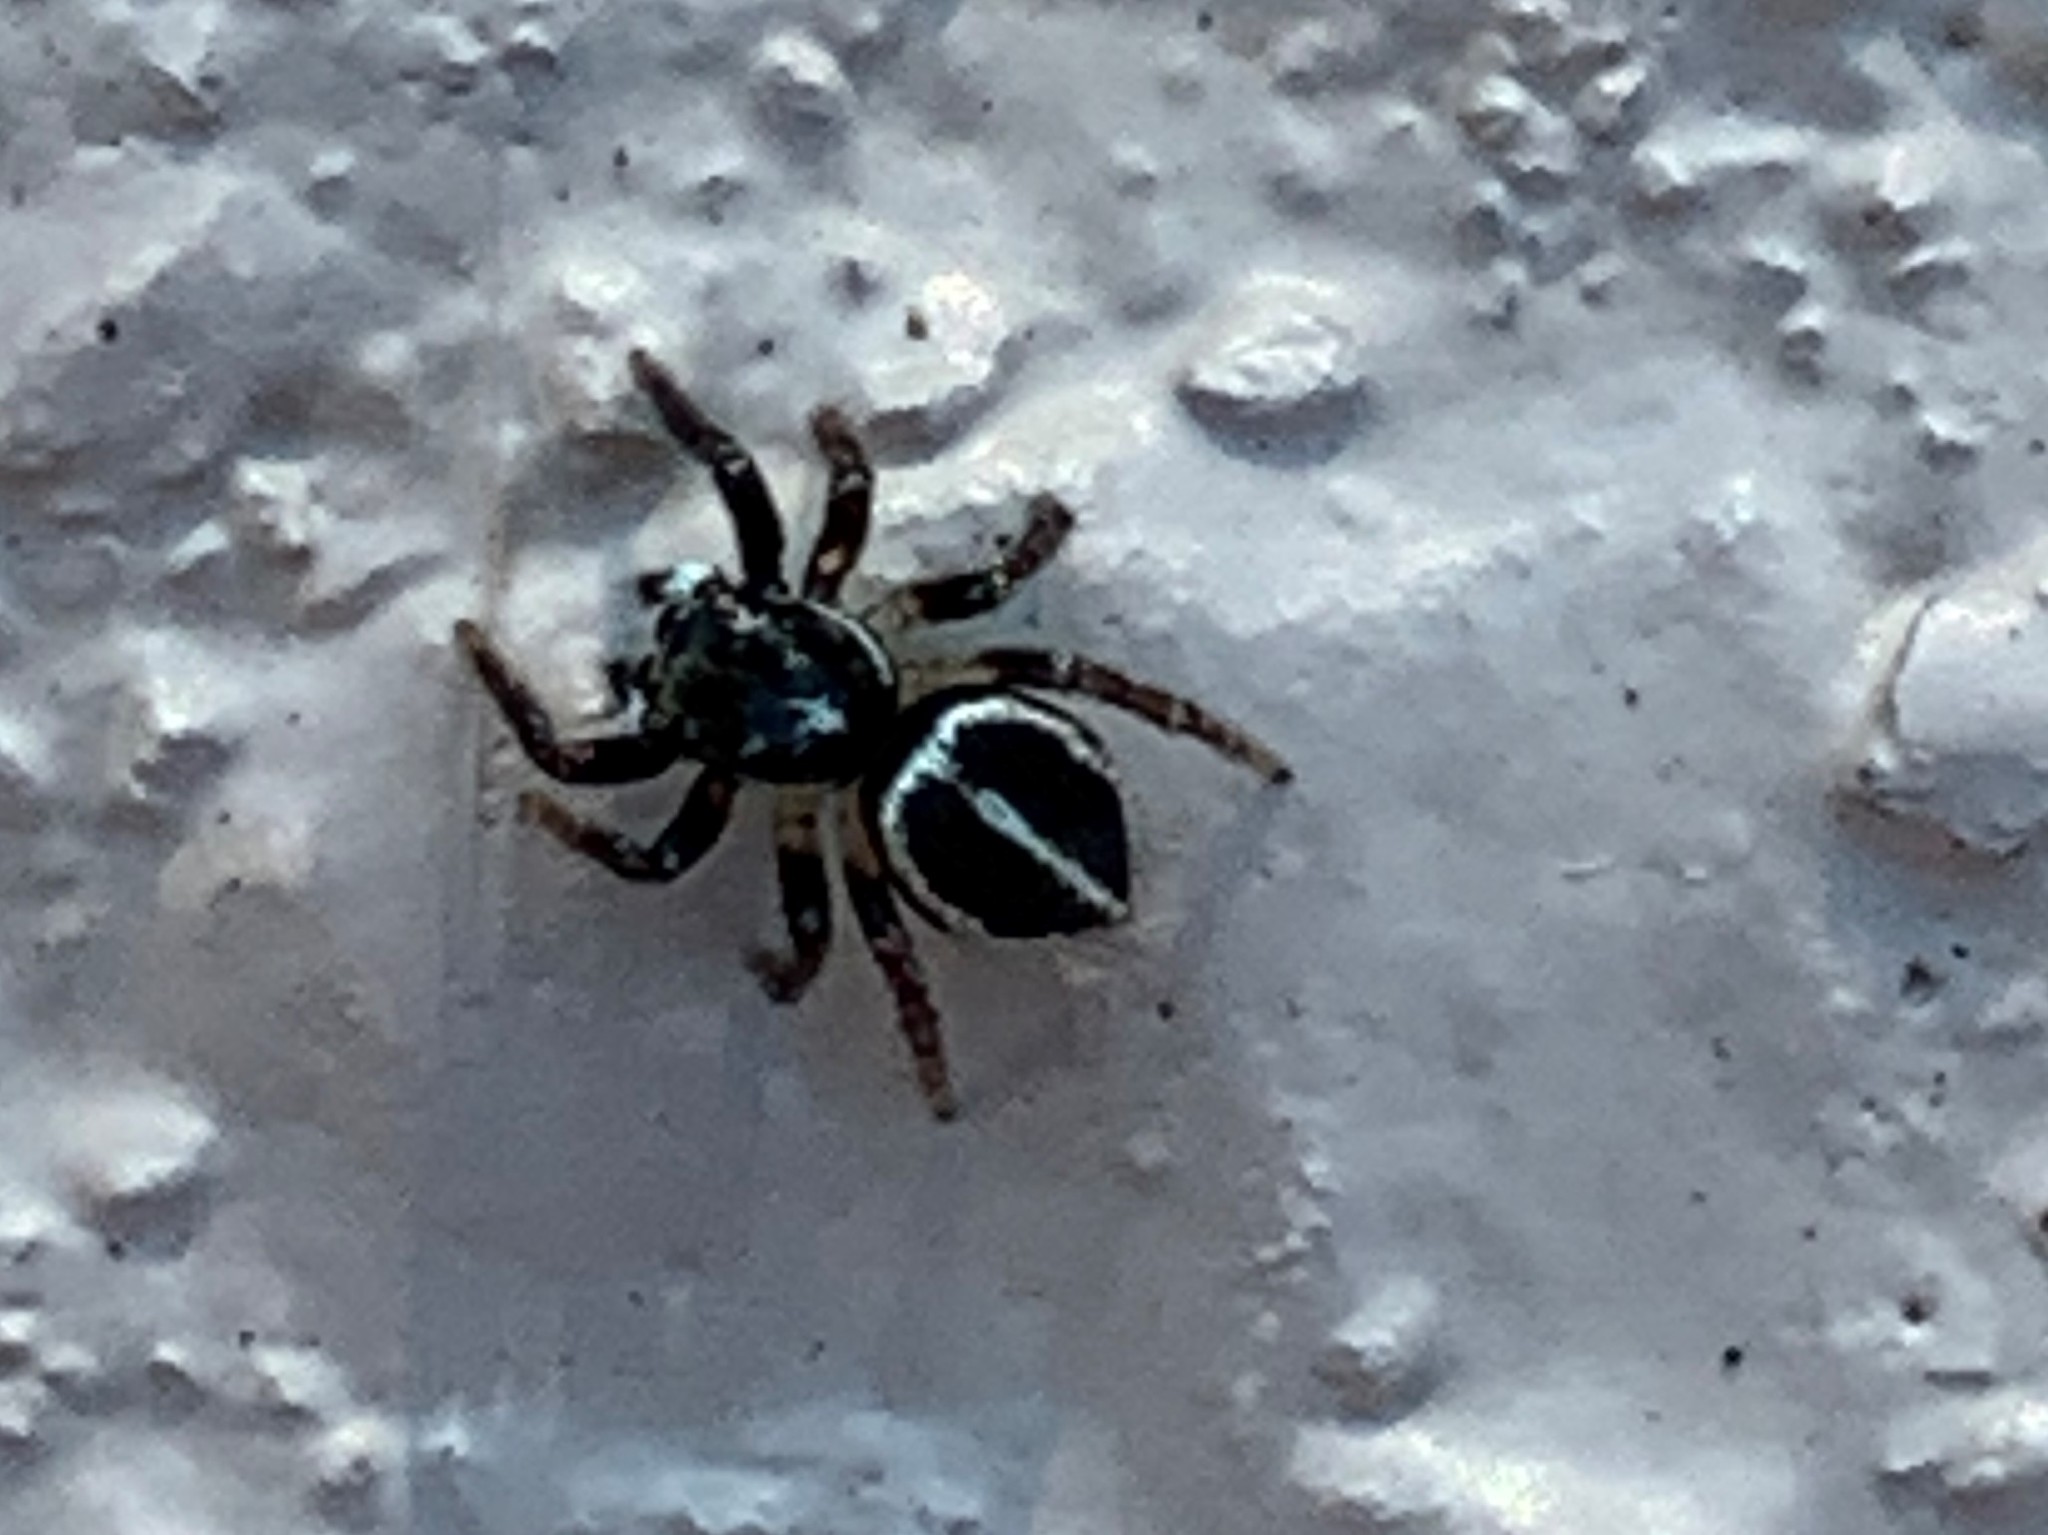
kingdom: Animalia
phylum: Arthropoda
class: Arachnida
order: Araneae
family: Salticidae
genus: Anasaitis
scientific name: Anasaitis canosa
